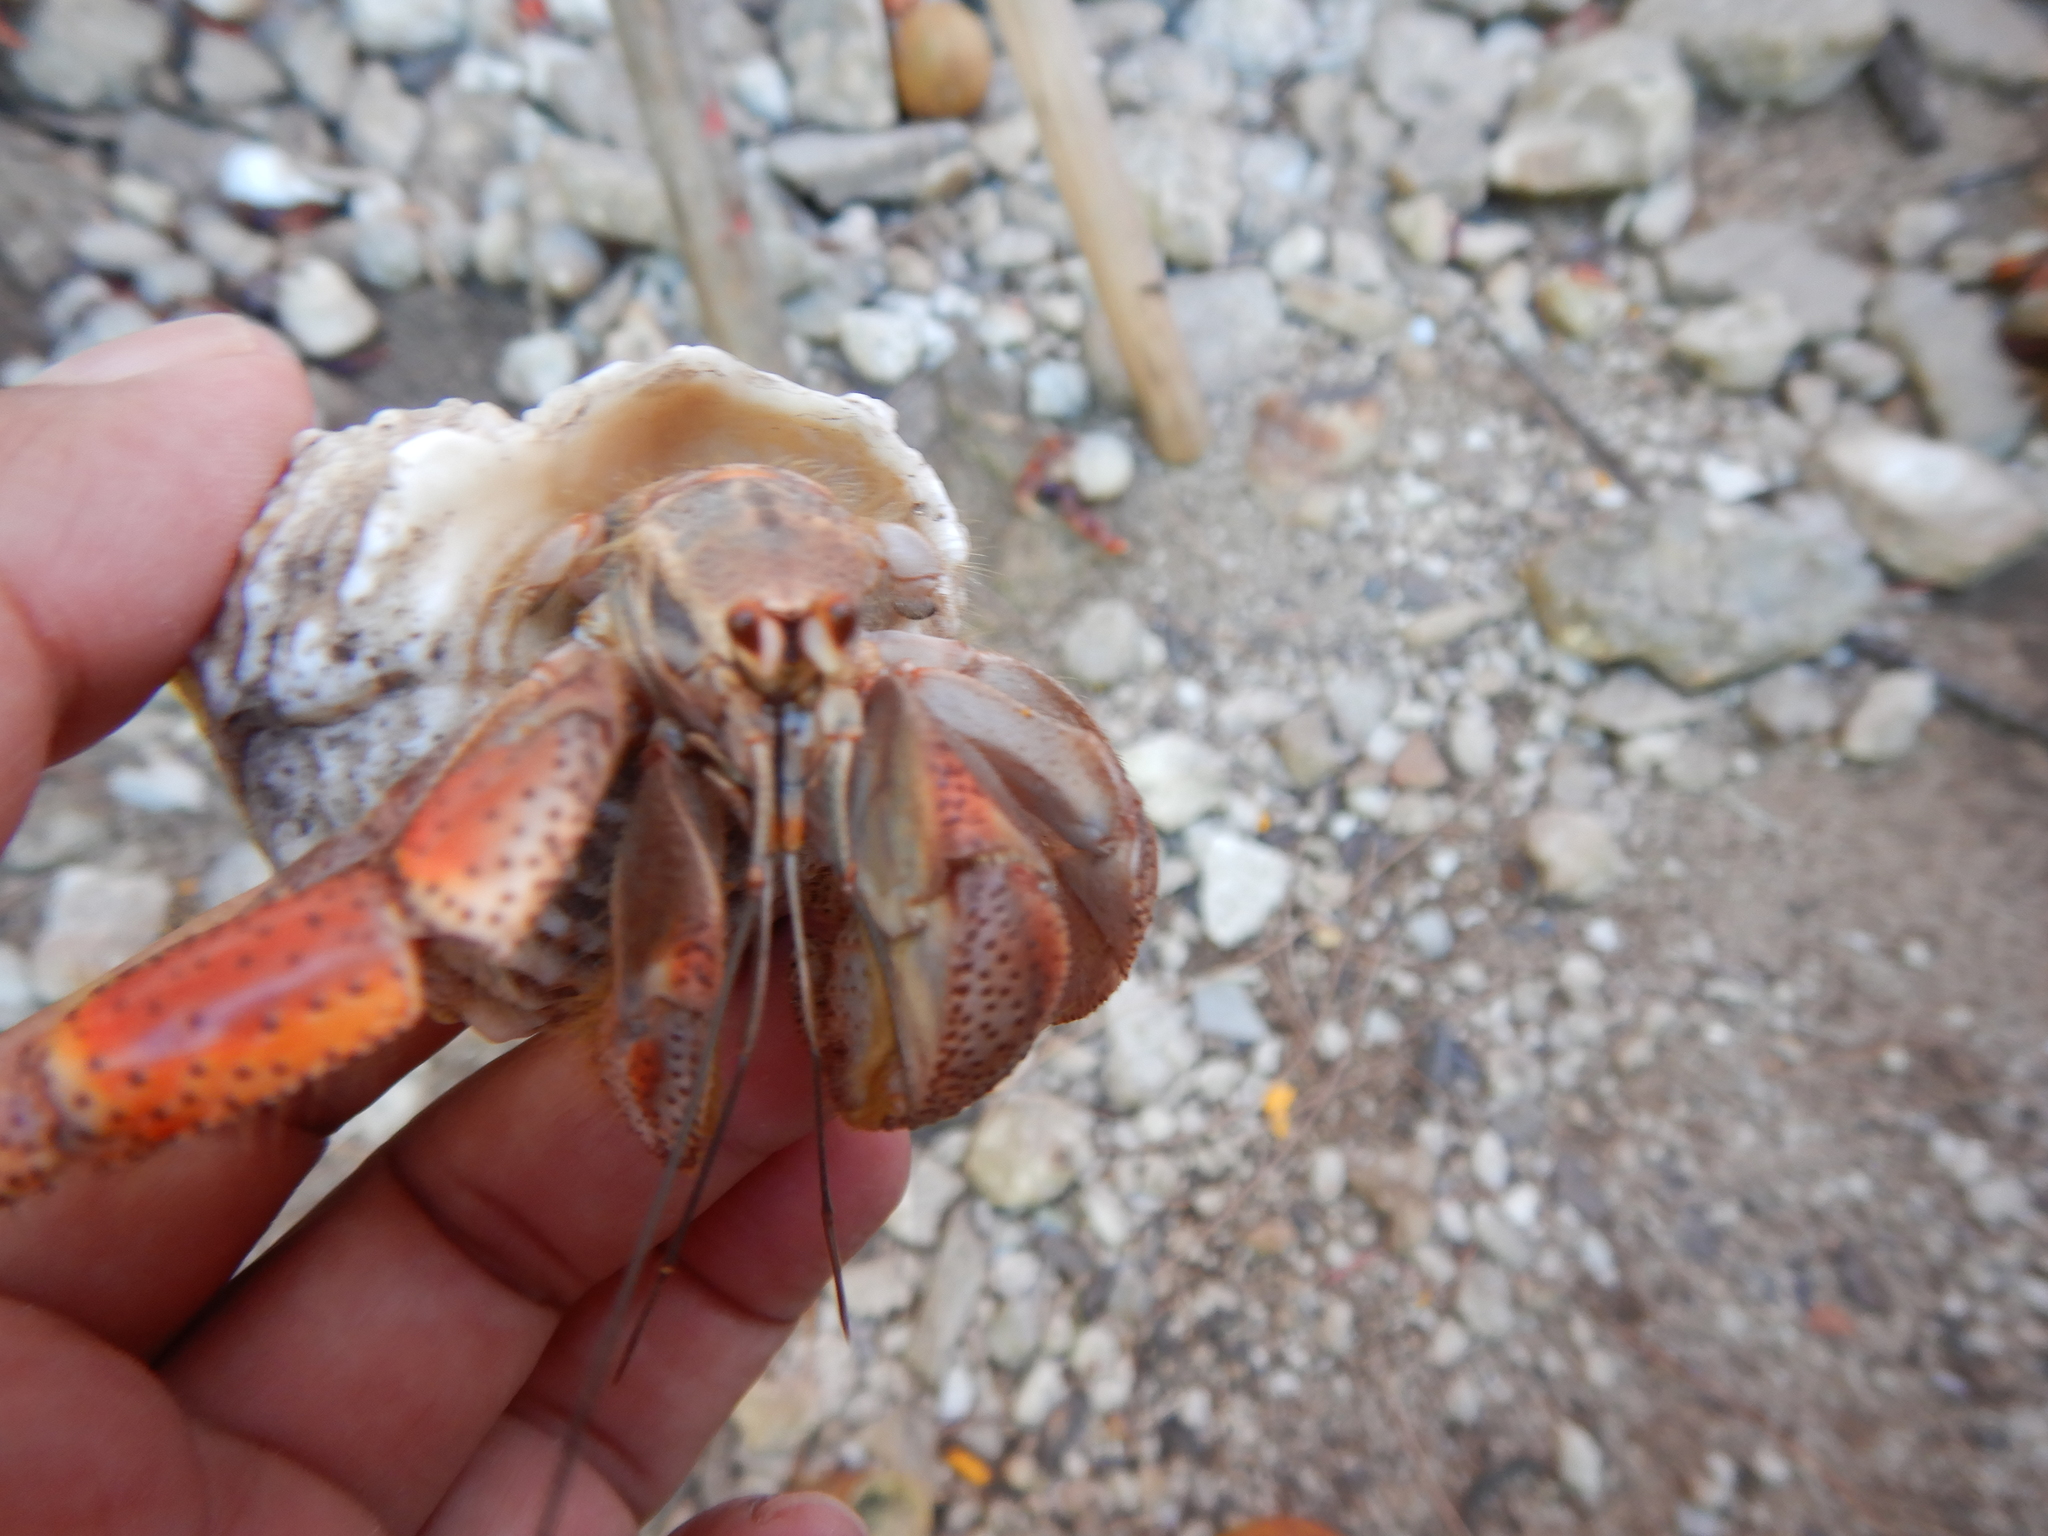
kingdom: Animalia
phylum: Arthropoda
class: Malacostraca
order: Decapoda
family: Coenobitidae
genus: Coenobita
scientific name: Coenobita clypeatus
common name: Caribbean hermit crab
